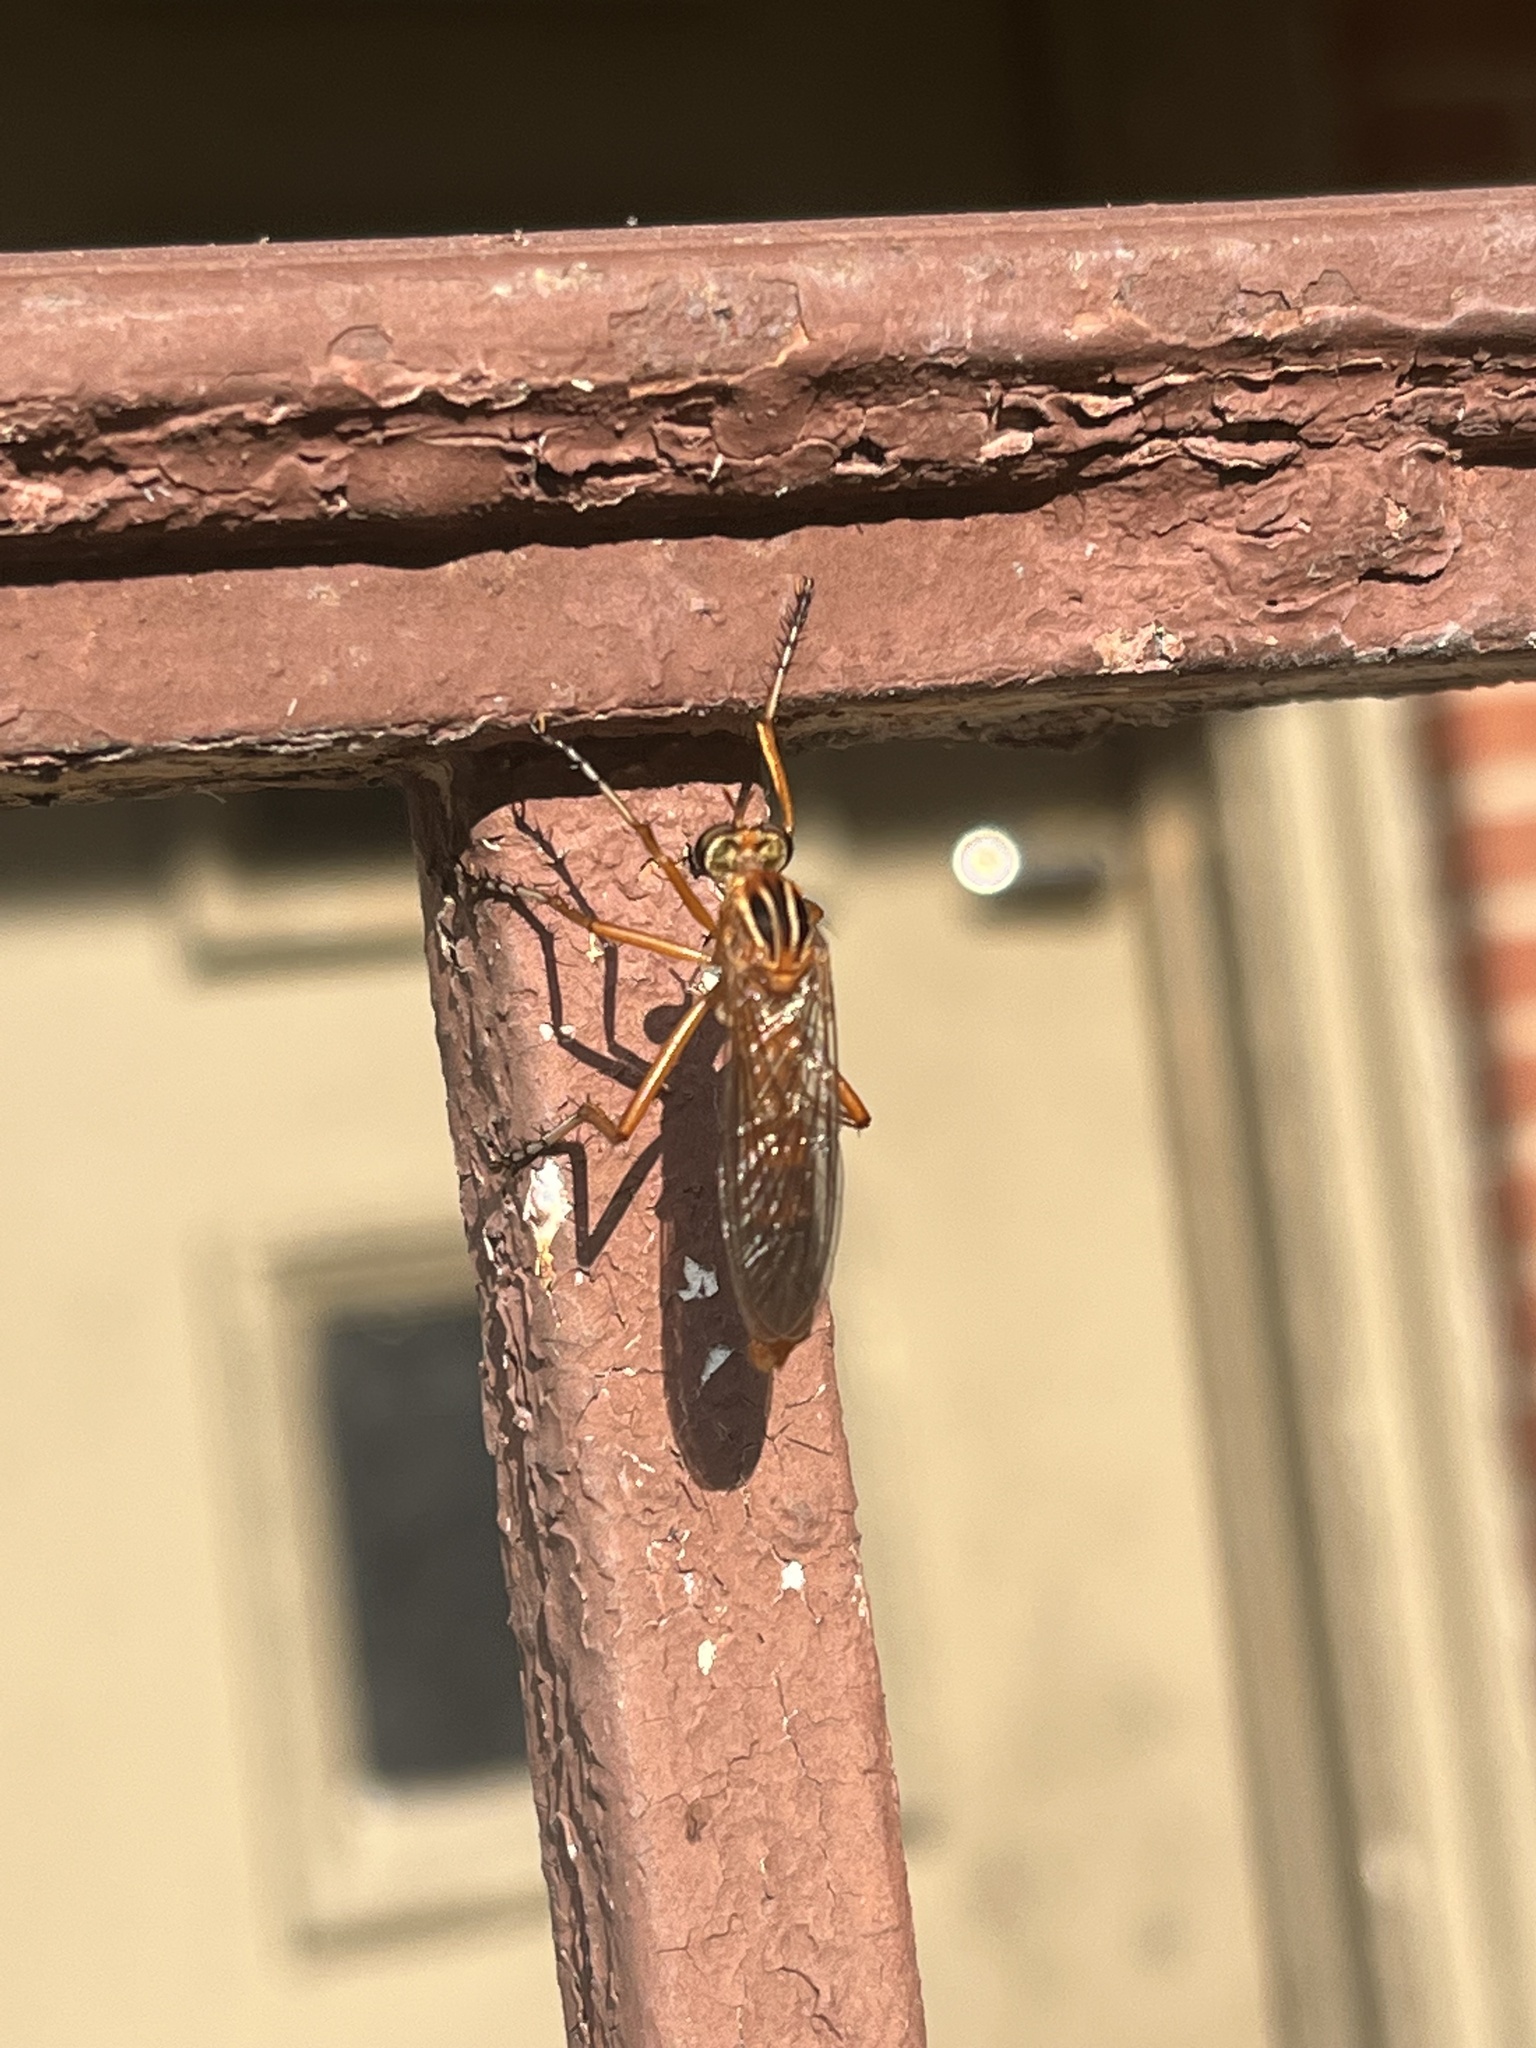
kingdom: Animalia
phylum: Arthropoda
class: Insecta
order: Diptera
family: Asilidae
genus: Diogmites
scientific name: Diogmites neoternatus
